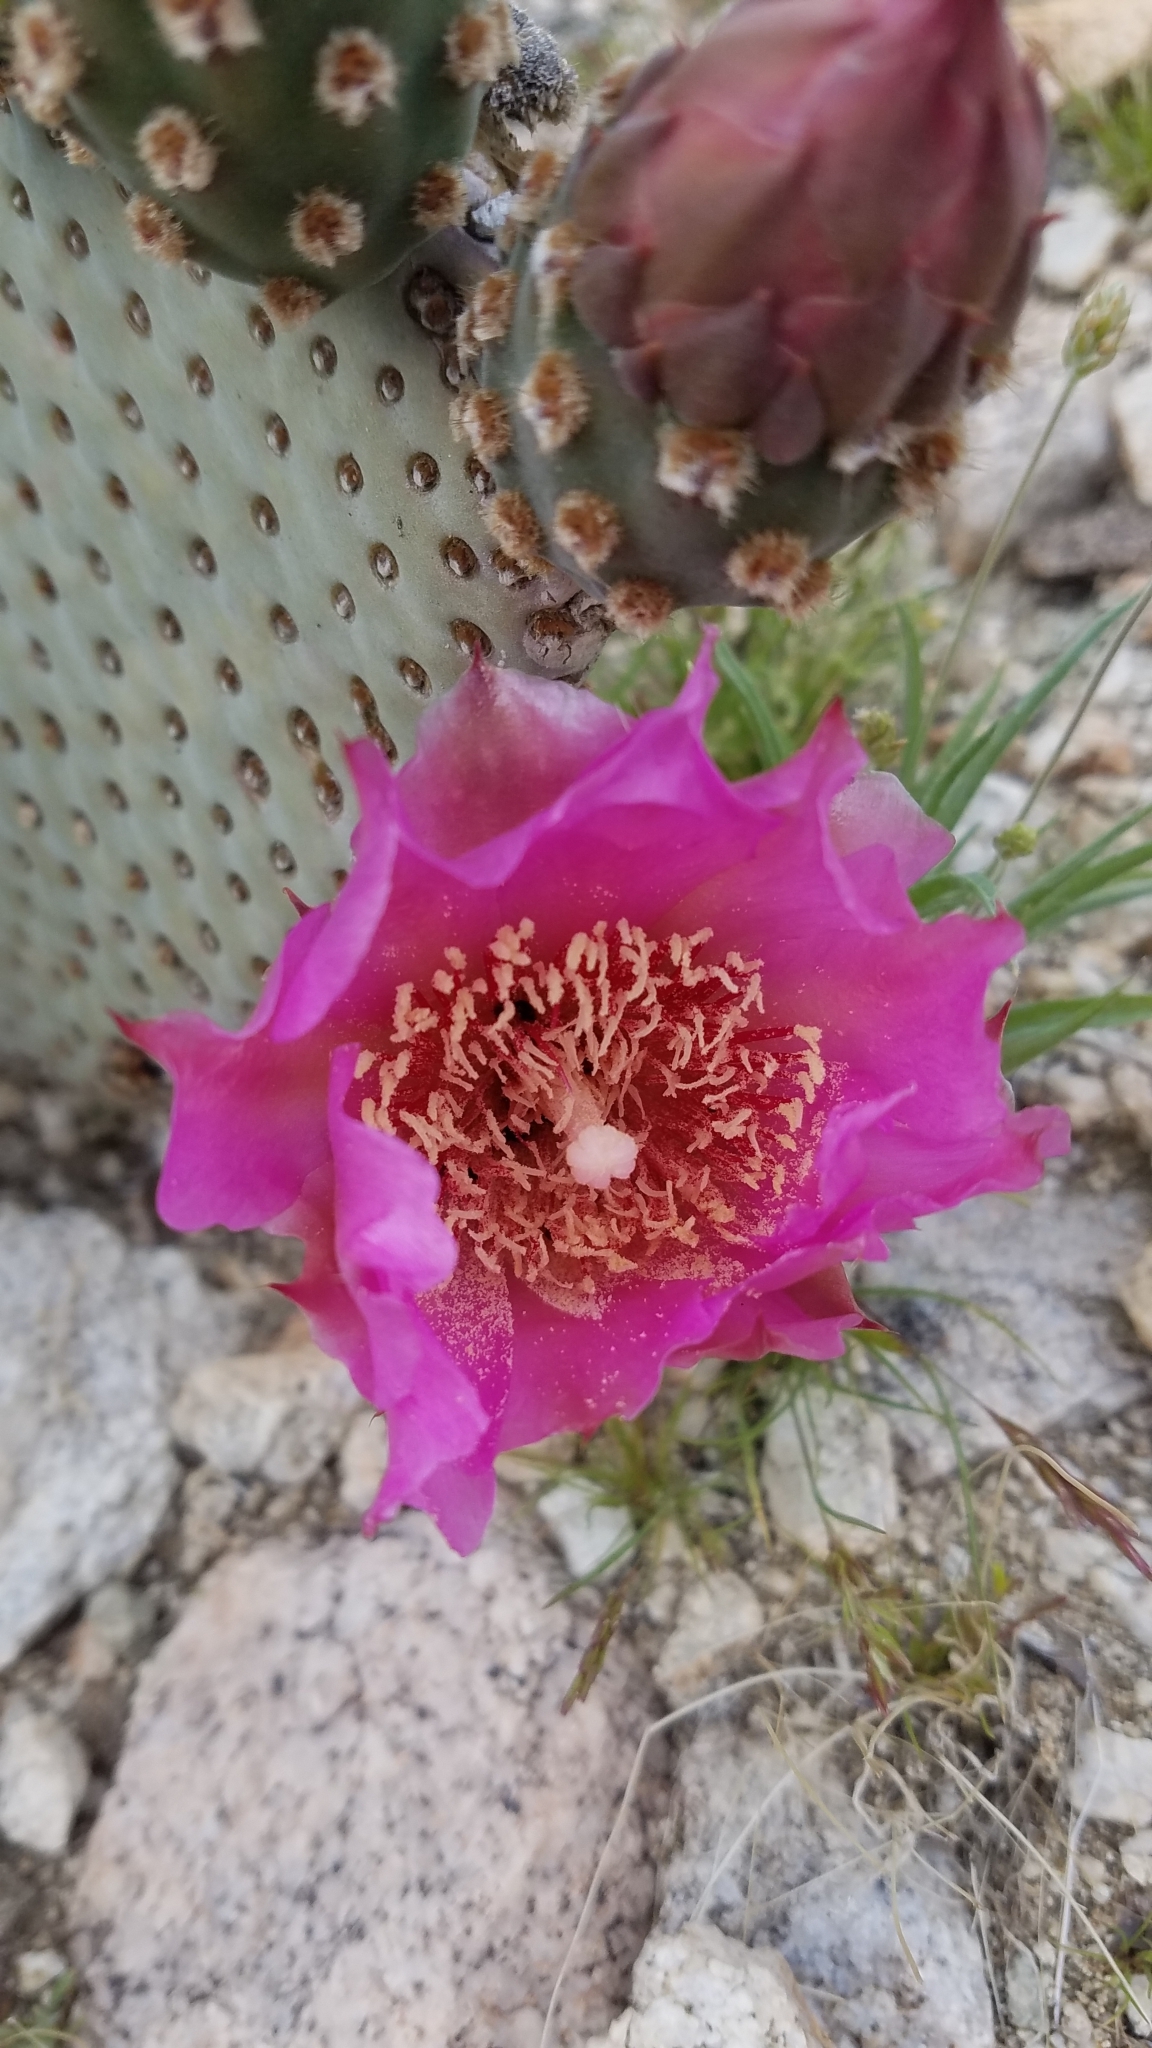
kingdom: Plantae
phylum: Tracheophyta
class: Magnoliopsida
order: Caryophyllales
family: Cactaceae
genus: Opuntia
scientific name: Opuntia basilaris
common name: Beavertail prickly-pear
